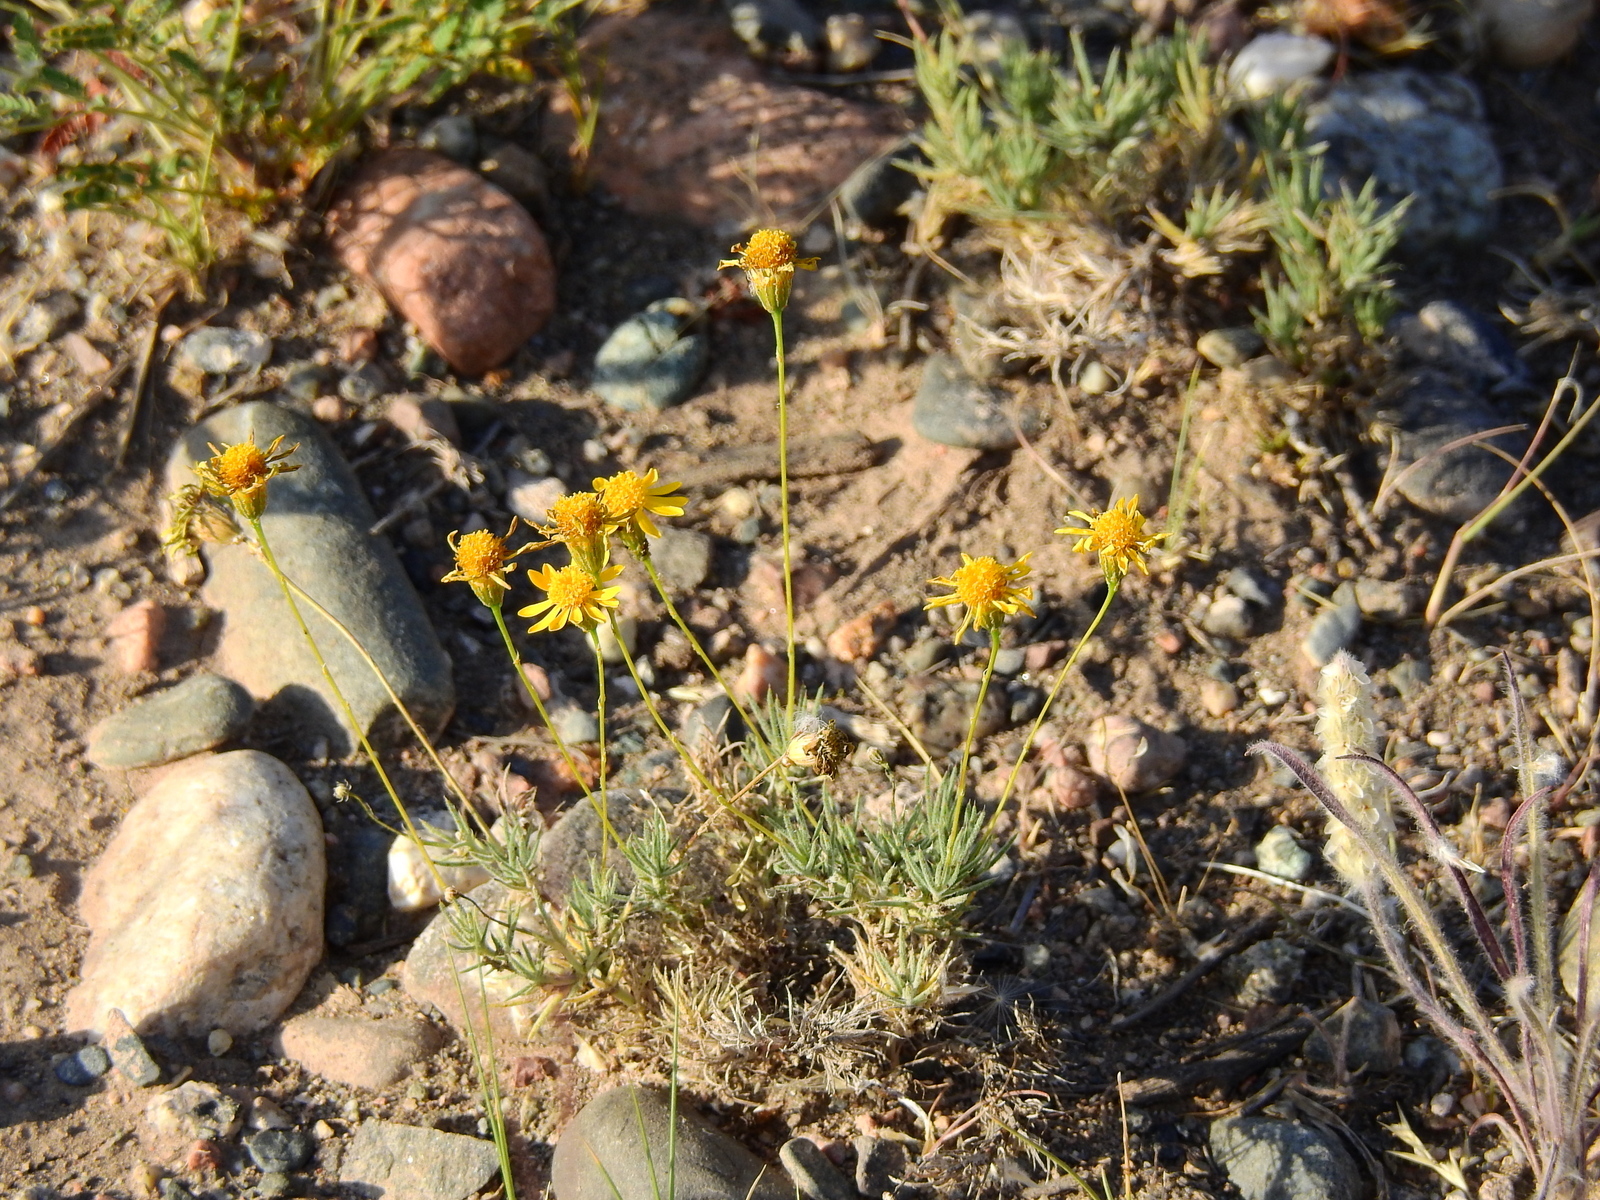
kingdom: Plantae
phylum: Tracheophyta
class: Magnoliopsida
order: Asterales
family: Asteraceae
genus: Thymophylla
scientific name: Thymophylla pentachaeta
